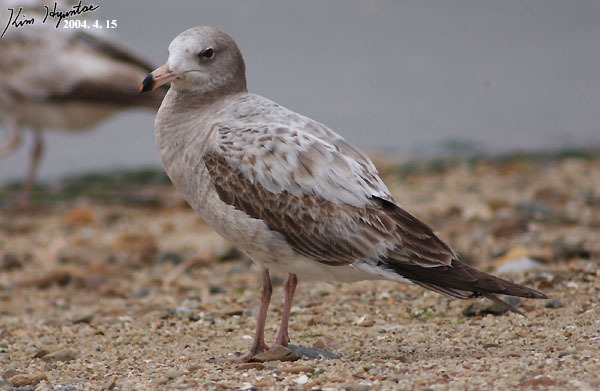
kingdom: Animalia
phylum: Chordata
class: Aves
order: Charadriiformes
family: Laridae
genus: Larus
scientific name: Larus crassirostris
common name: Black-tailed gull
